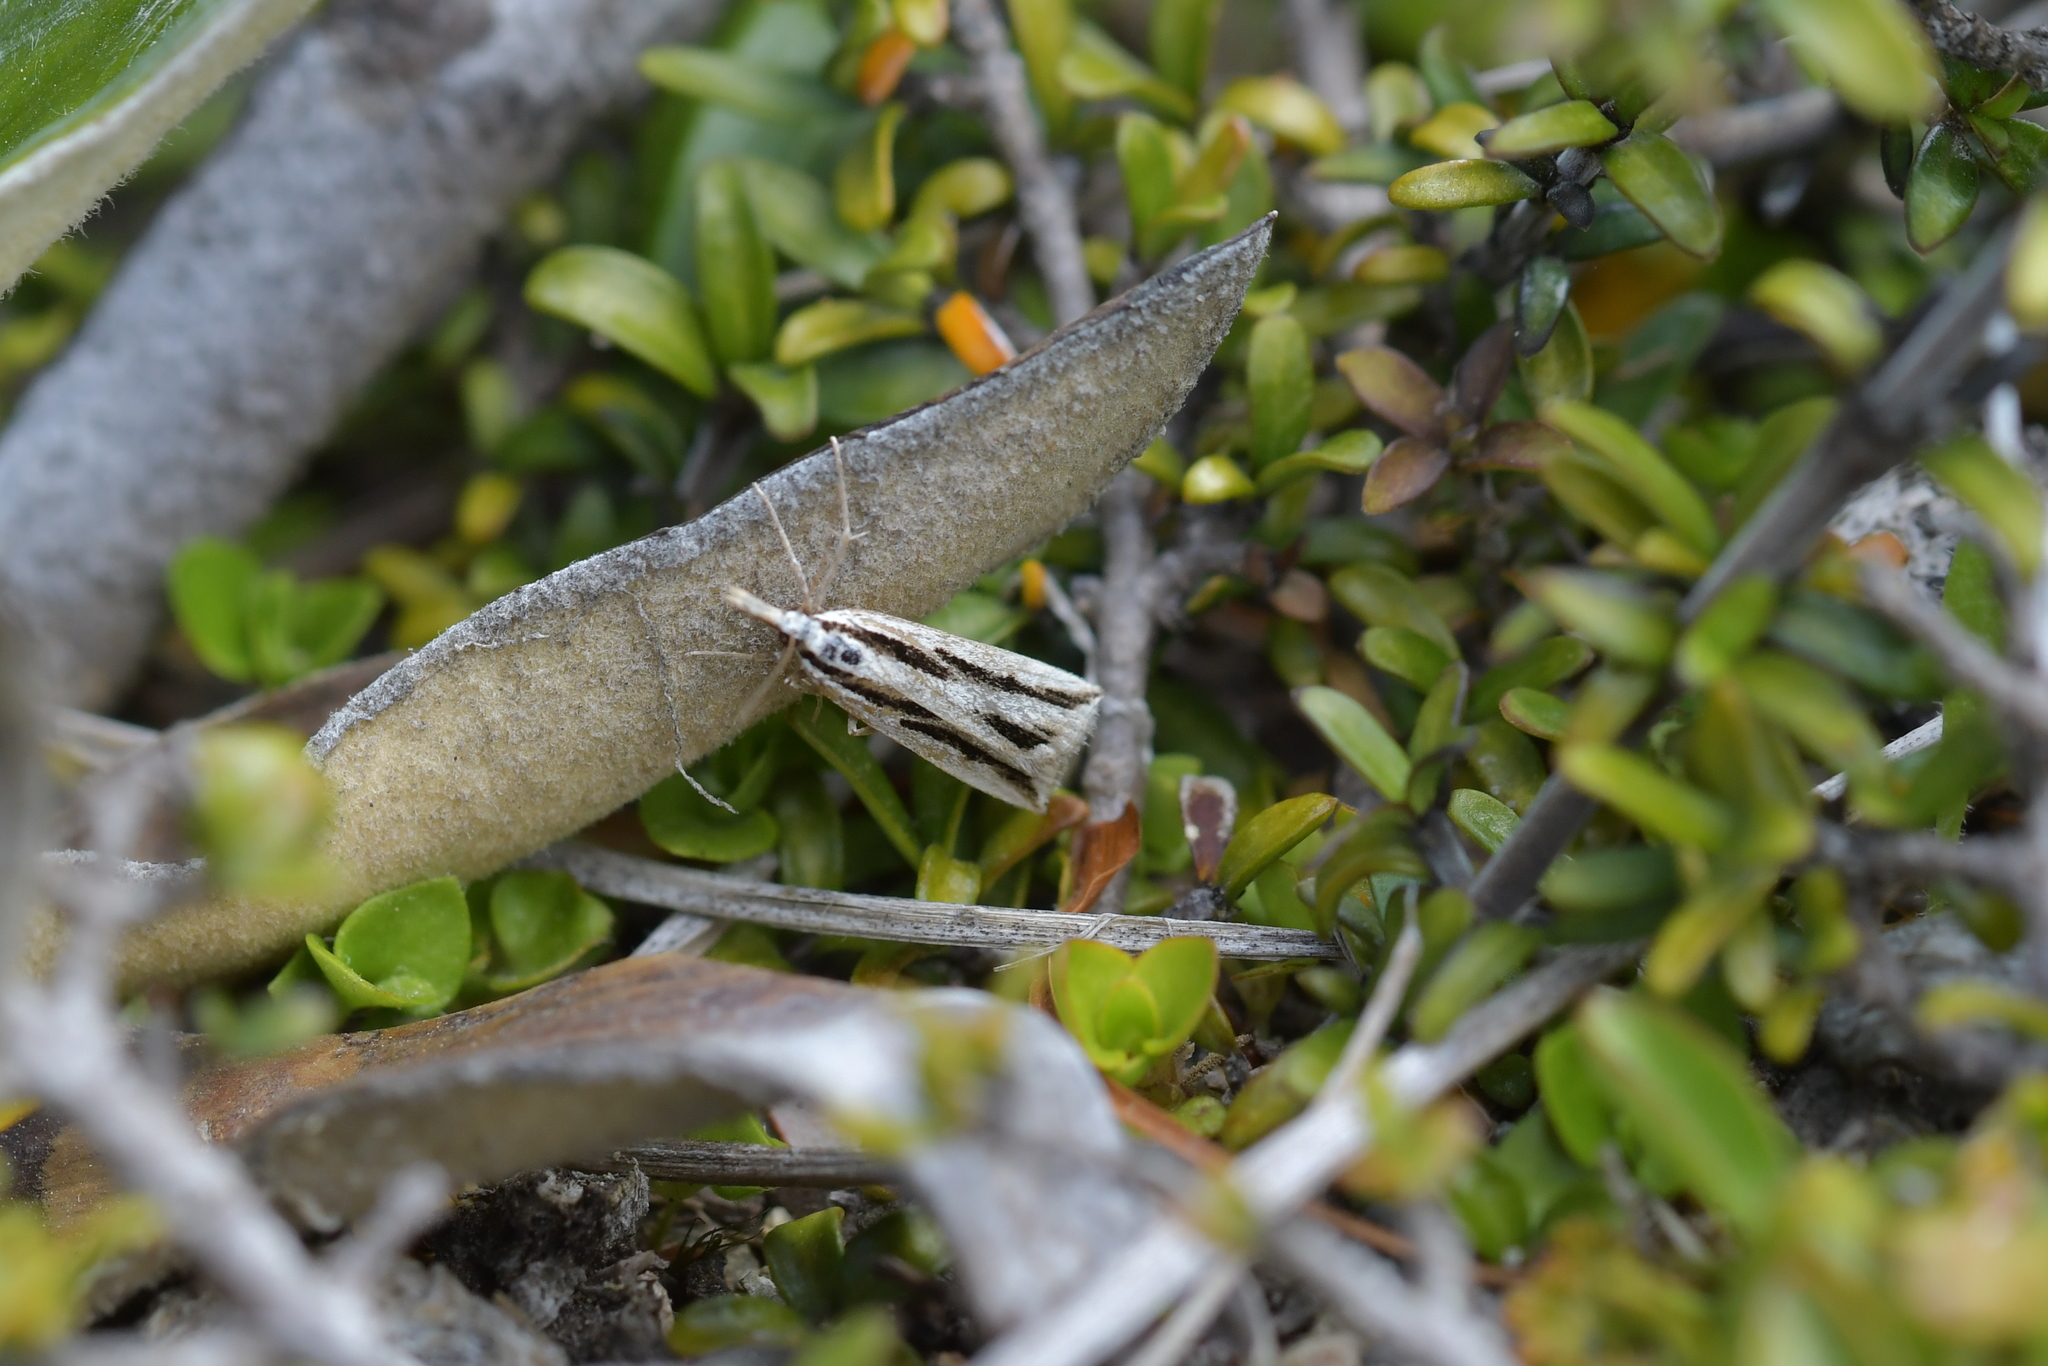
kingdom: Animalia
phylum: Arthropoda
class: Insecta
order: Lepidoptera
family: Crambidae
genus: Eudonia
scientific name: Eudonia trivirgata
